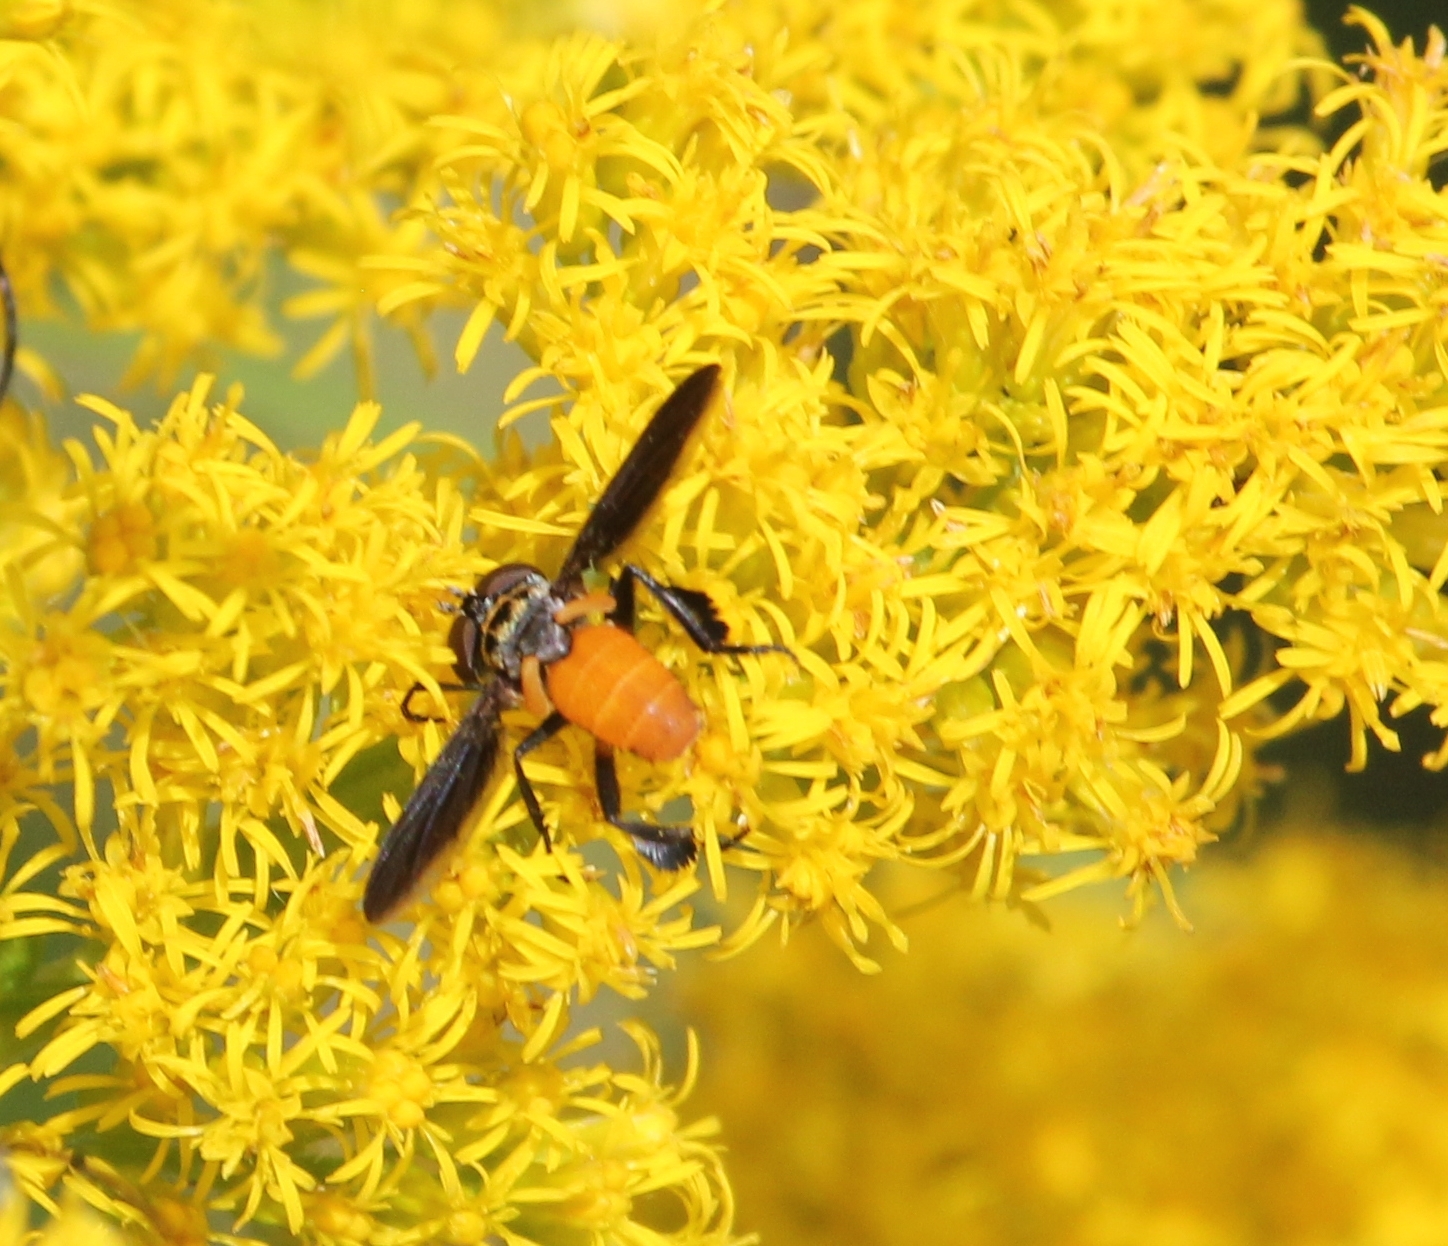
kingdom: Animalia
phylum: Arthropoda
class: Insecta
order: Diptera
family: Tachinidae
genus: Trichopoda
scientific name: Trichopoda pennipes
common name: Tachinid fly
